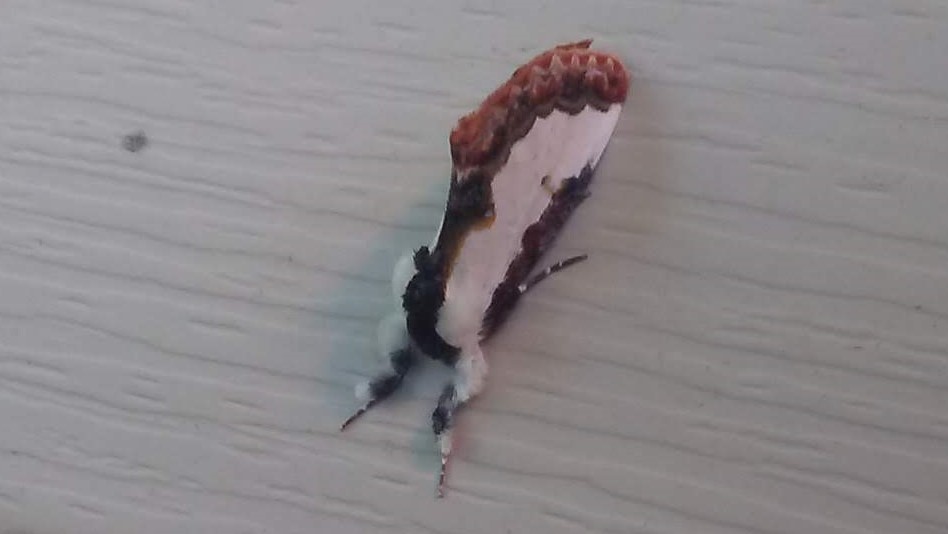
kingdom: Animalia
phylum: Arthropoda
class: Insecta
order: Lepidoptera
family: Noctuidae
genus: Eudryas
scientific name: Eudryas unio
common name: Pearly wood-nymph
